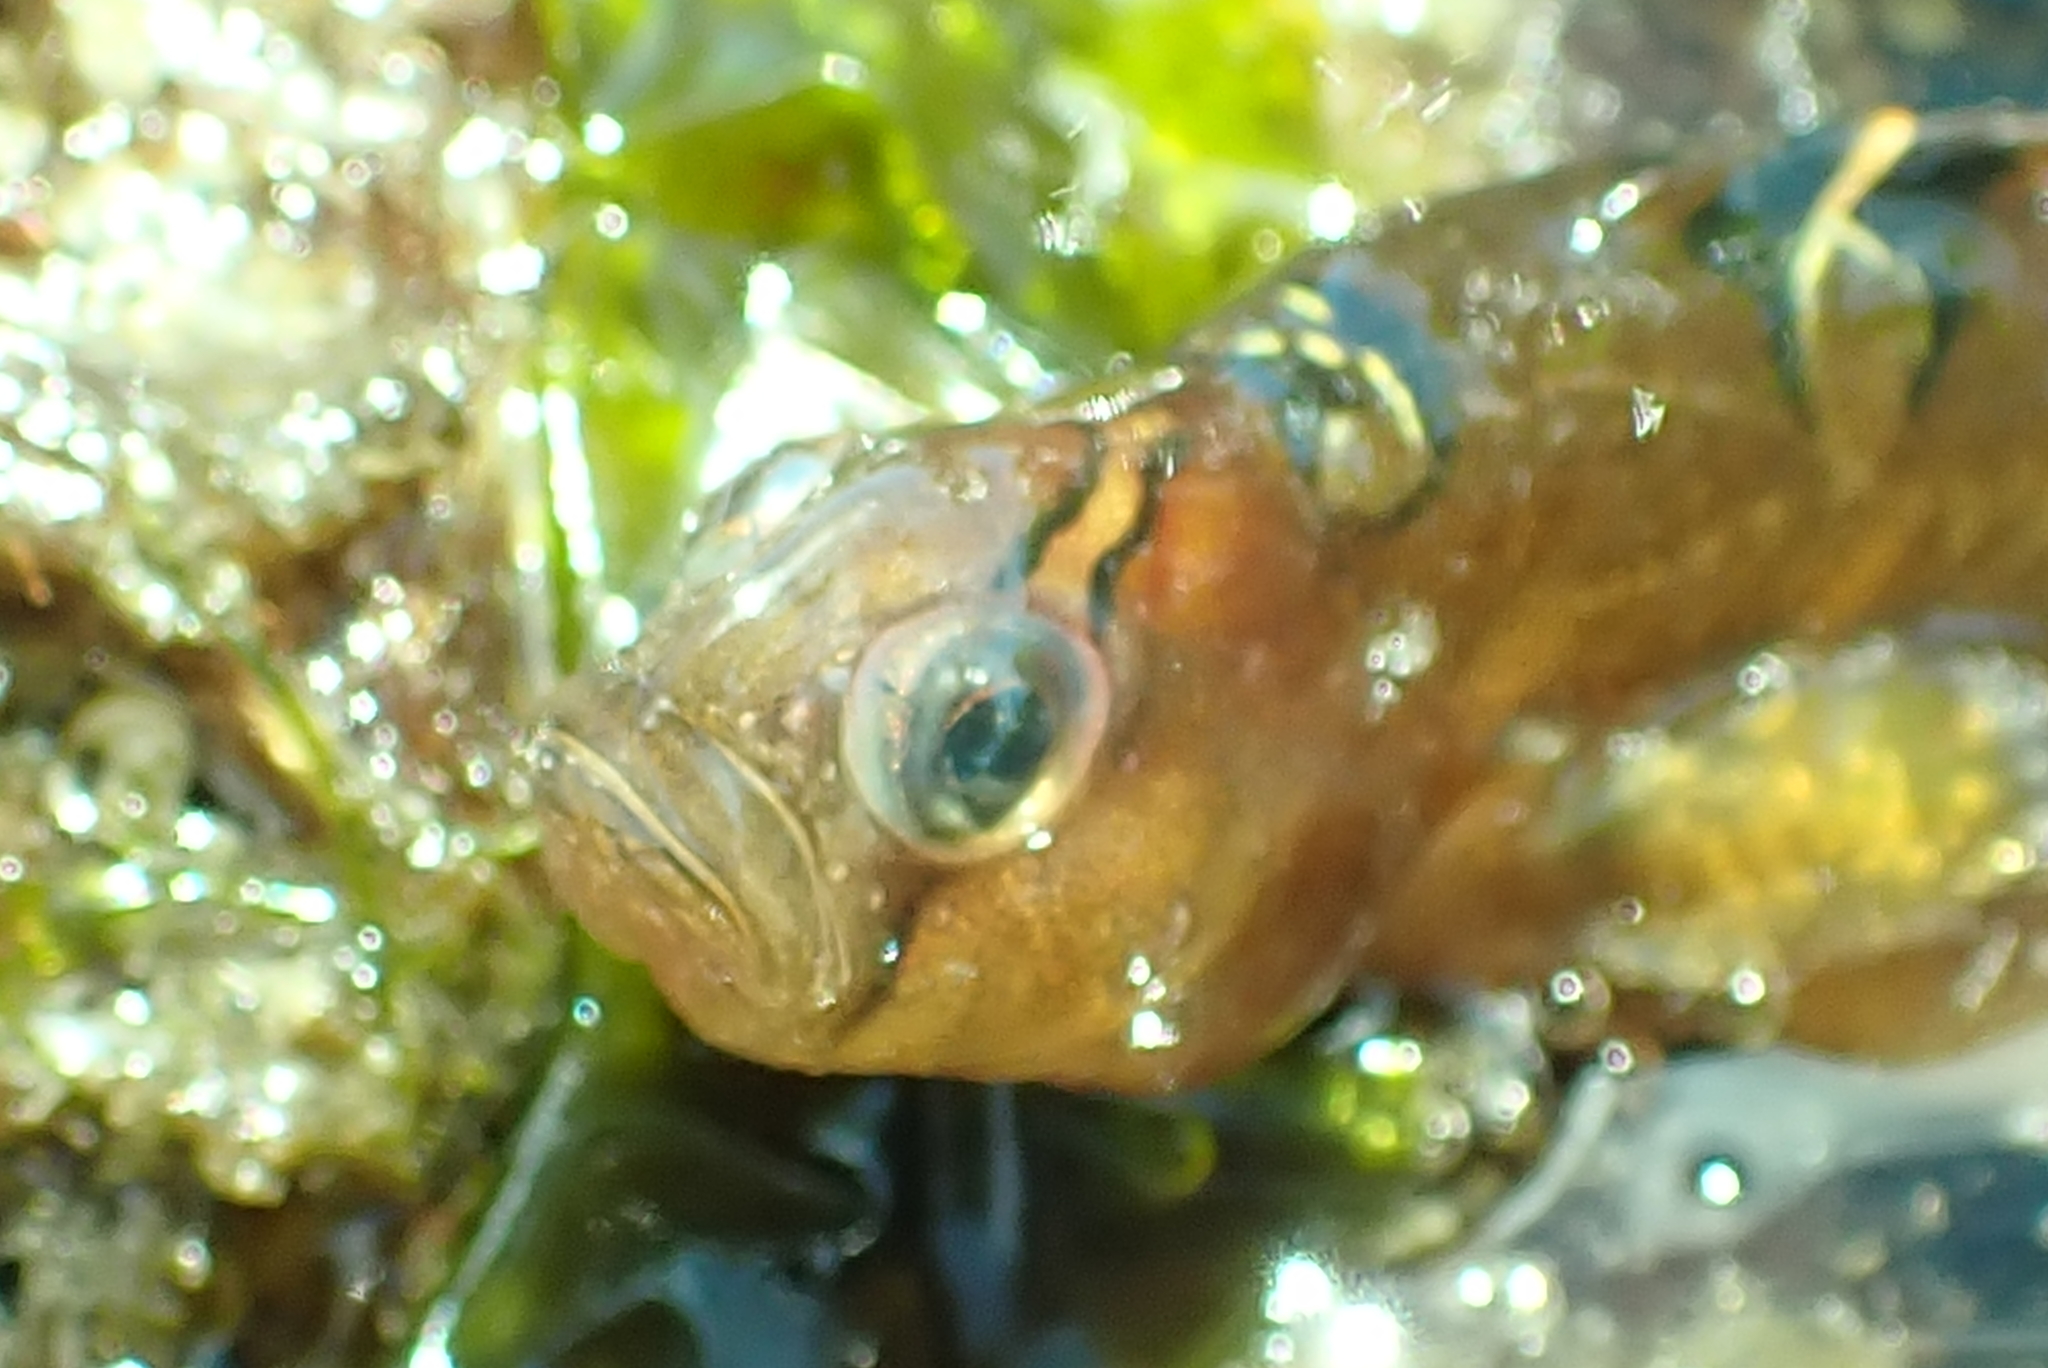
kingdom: Animalia
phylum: Chordata
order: Perciformes
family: Pholidae
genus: Pholis
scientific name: Pholis laeta
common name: Crescent gunnel
